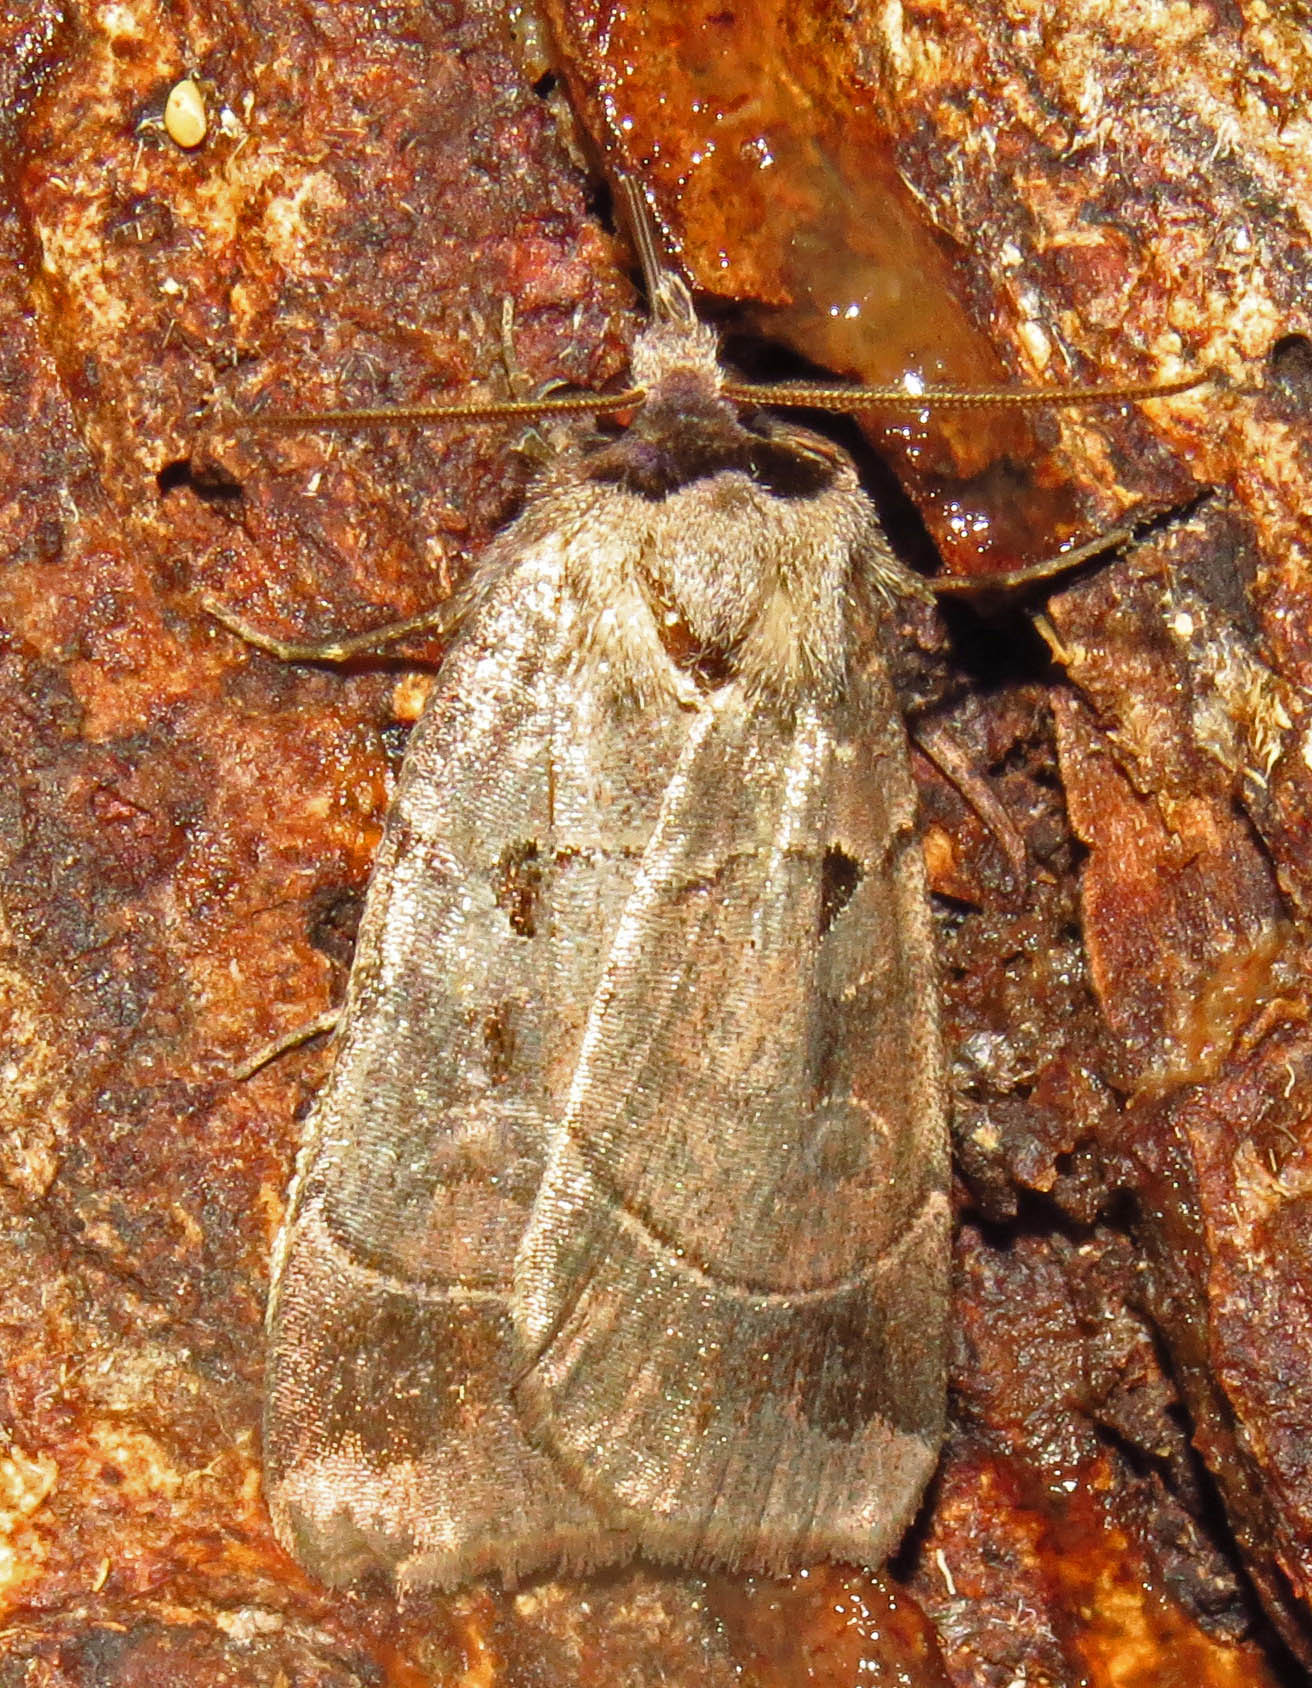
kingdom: Animalia
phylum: Arthropoda
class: Insecta
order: Lepidoptera
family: Noctuidae
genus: Agnorisma
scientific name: Agnorisma badinodis
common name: Pale-banded dart
